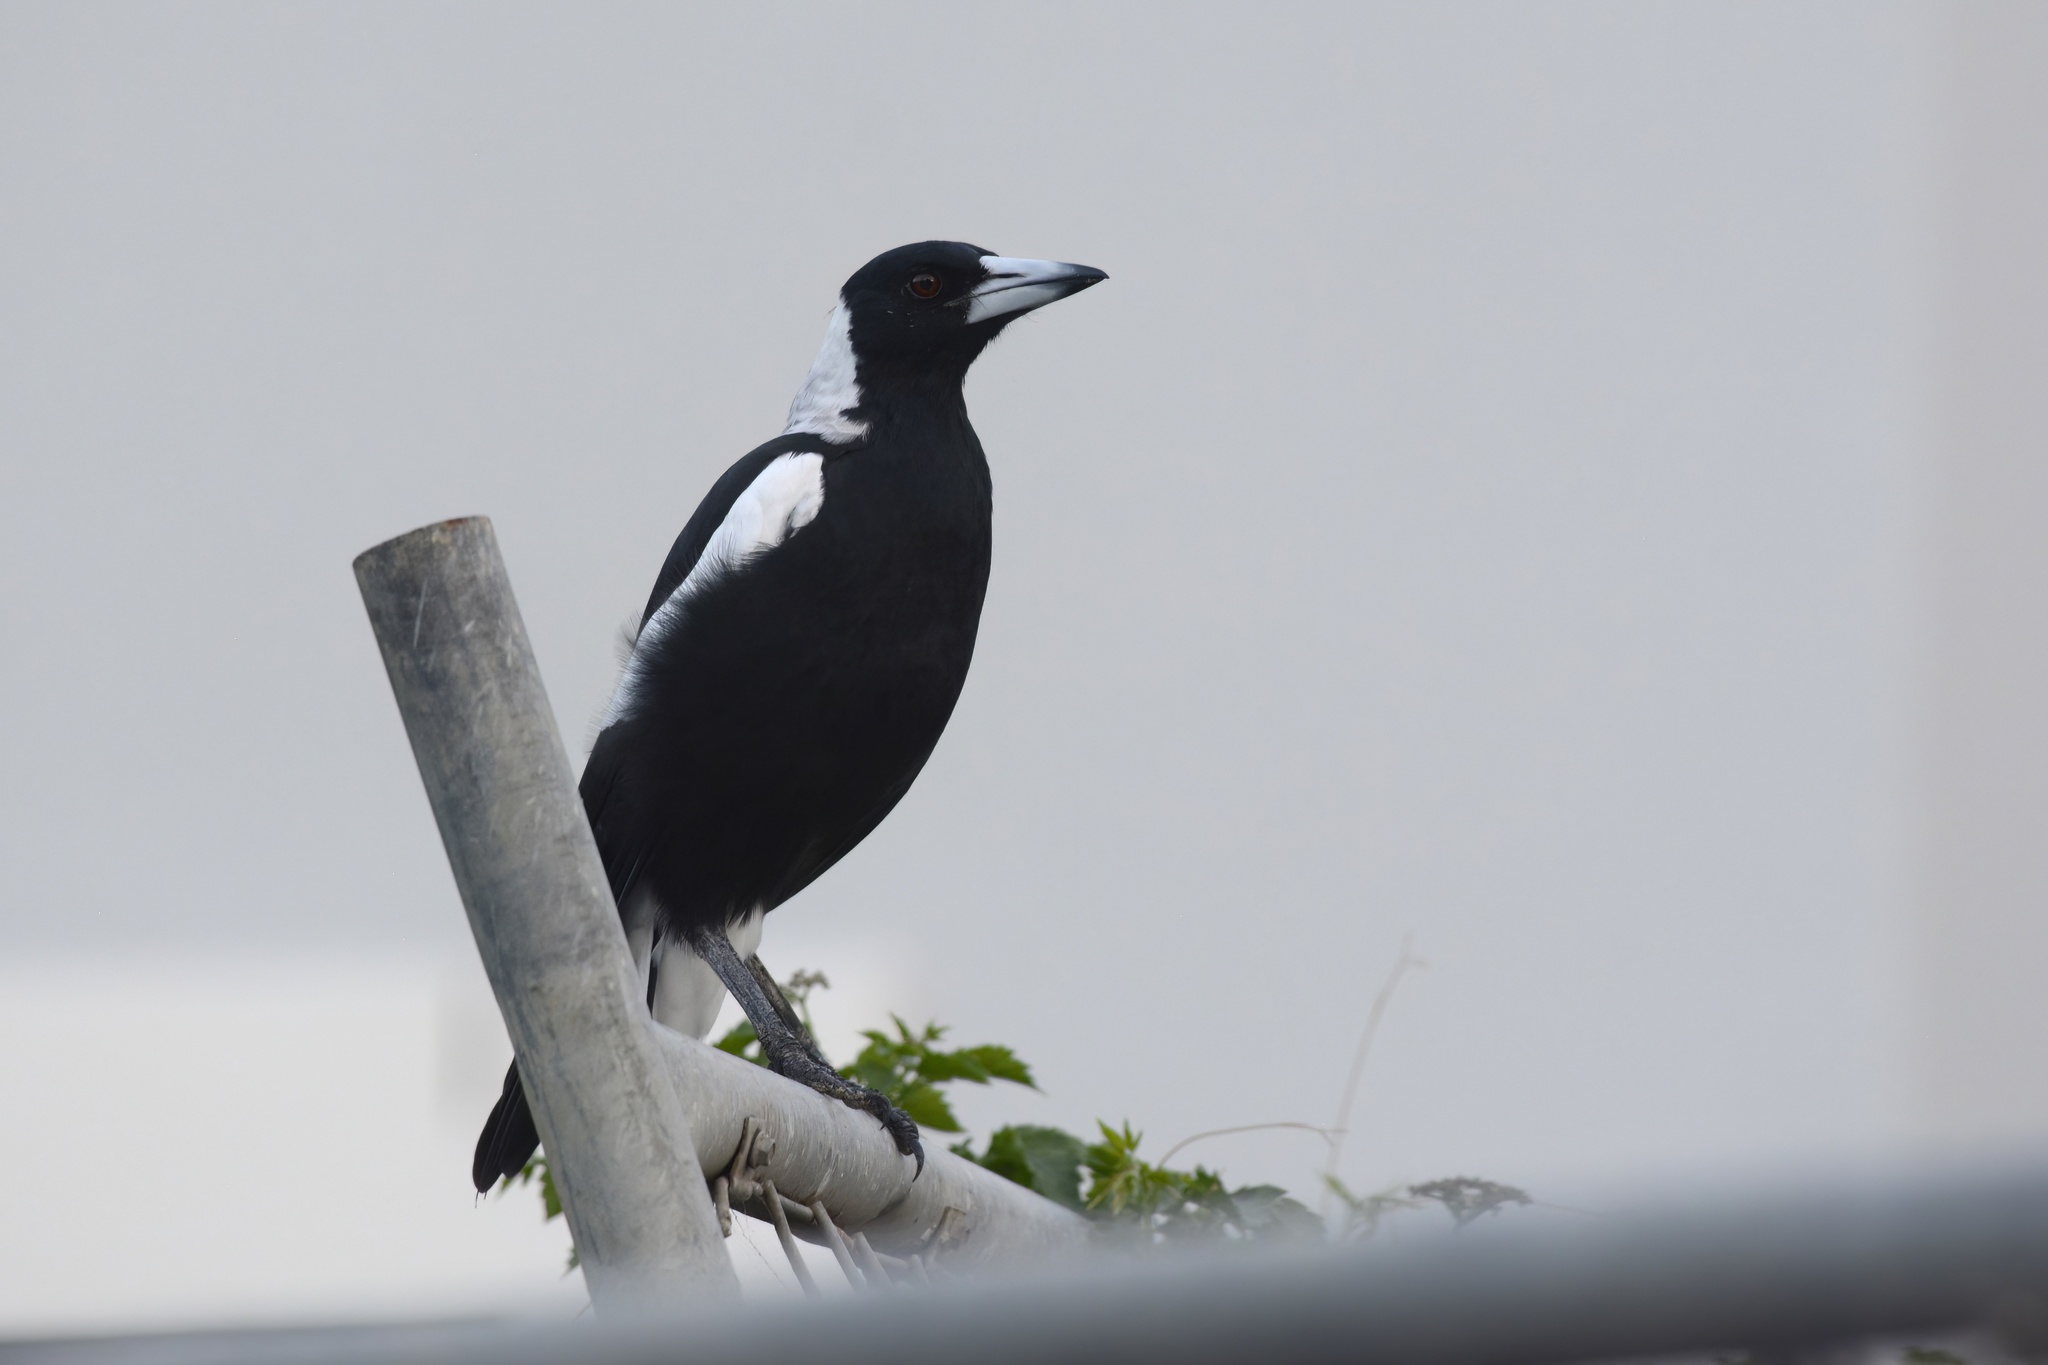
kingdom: Animalia
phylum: Chordata
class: Aves
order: Passeriformes
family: Cracticidae
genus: Gymnorhina
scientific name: Gymnorhina tibicen
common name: Australian magpie
